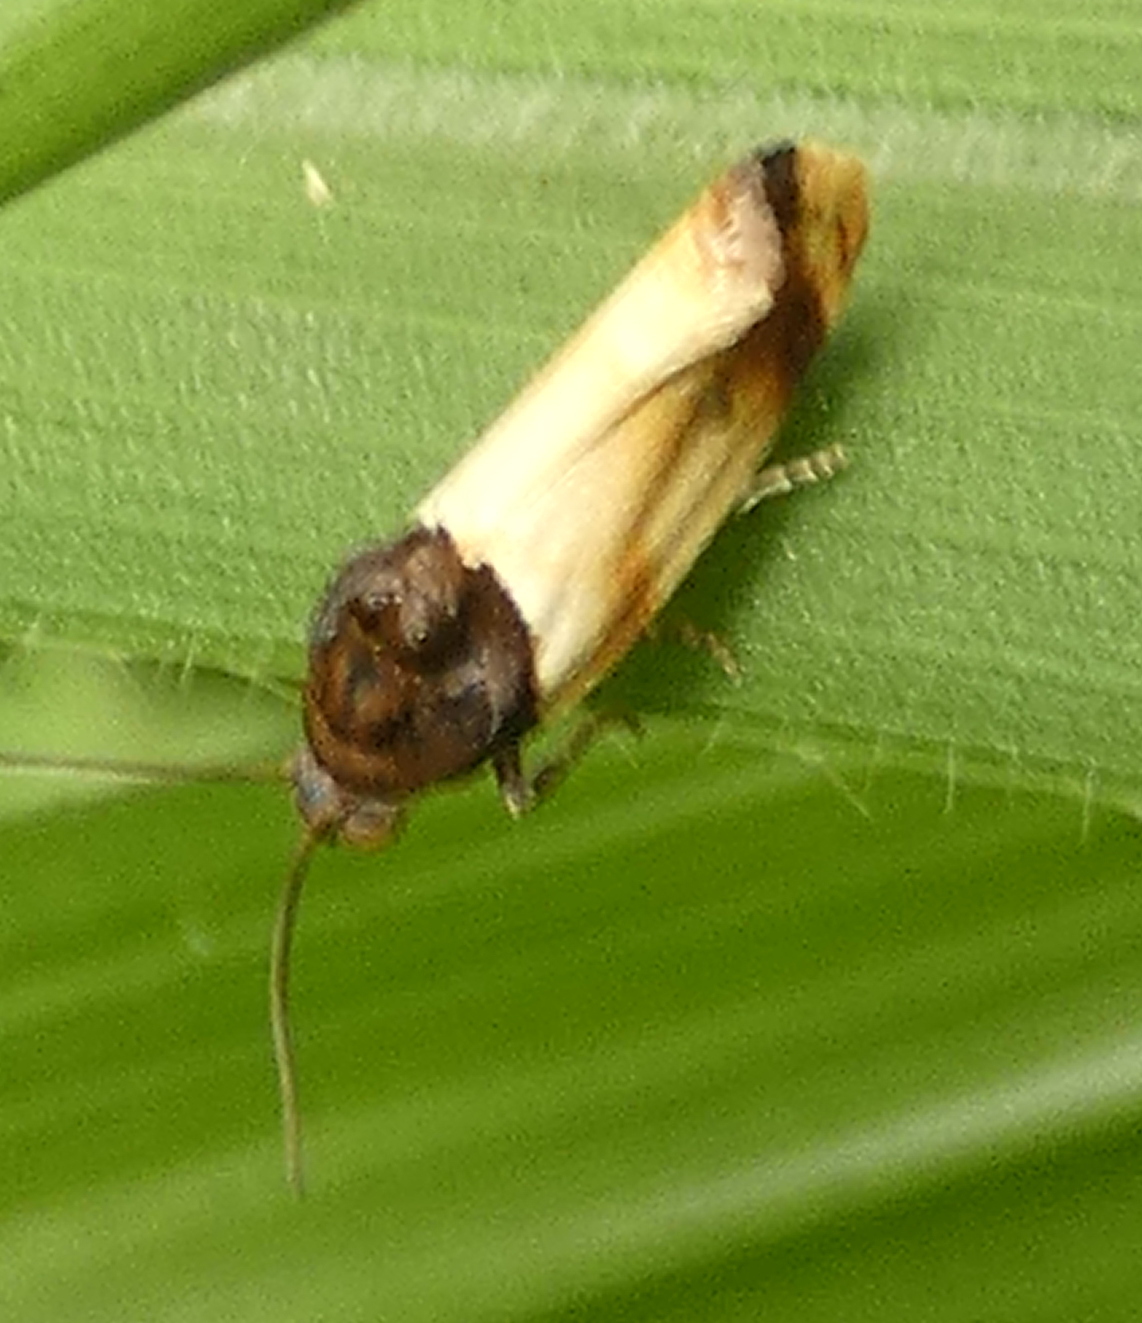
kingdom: Animalia
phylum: Arthropoda
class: Insecta
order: Lepidoptera
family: Noctuidae
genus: Spragueia
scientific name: Spragueia apicalis
